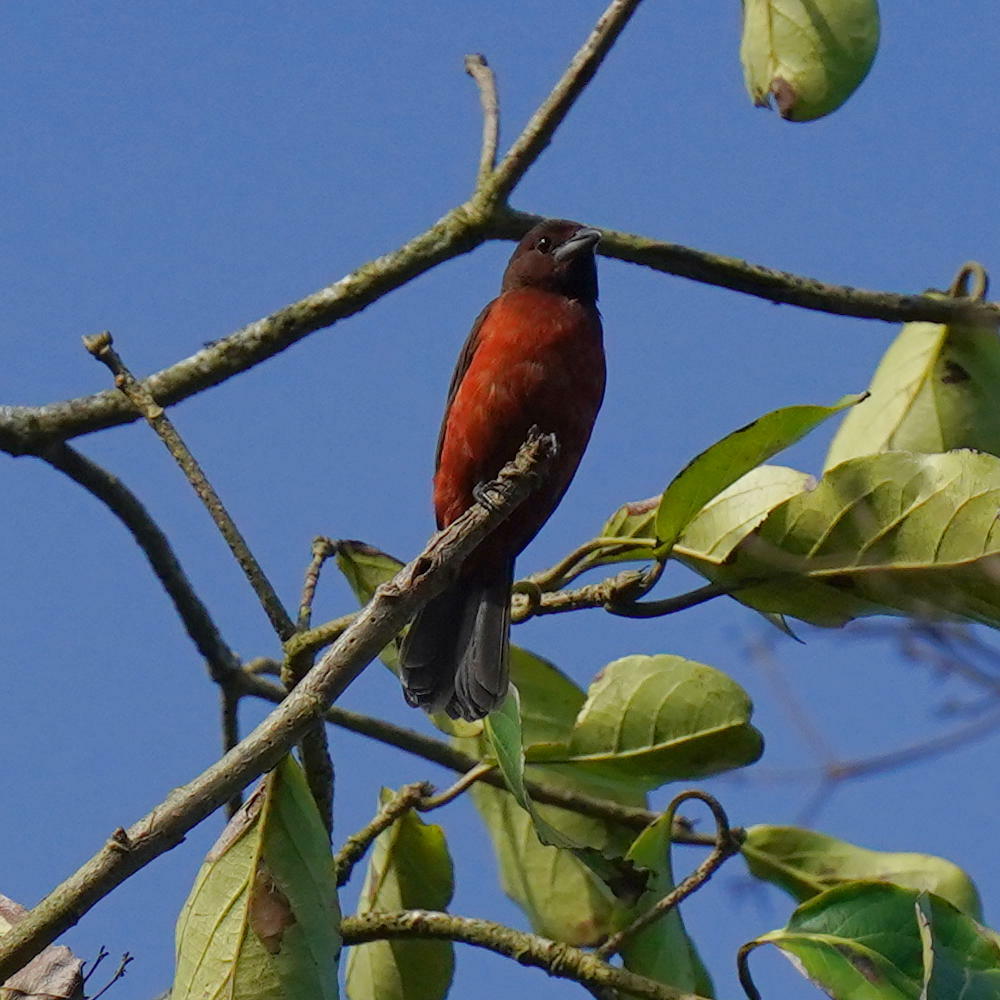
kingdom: Animalia
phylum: Chordata
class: Aves
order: Passeriformes
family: Thraupidae
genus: Ramphocelus
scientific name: Ramphocelus dimidiatus
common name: Crimson-backed tanager
